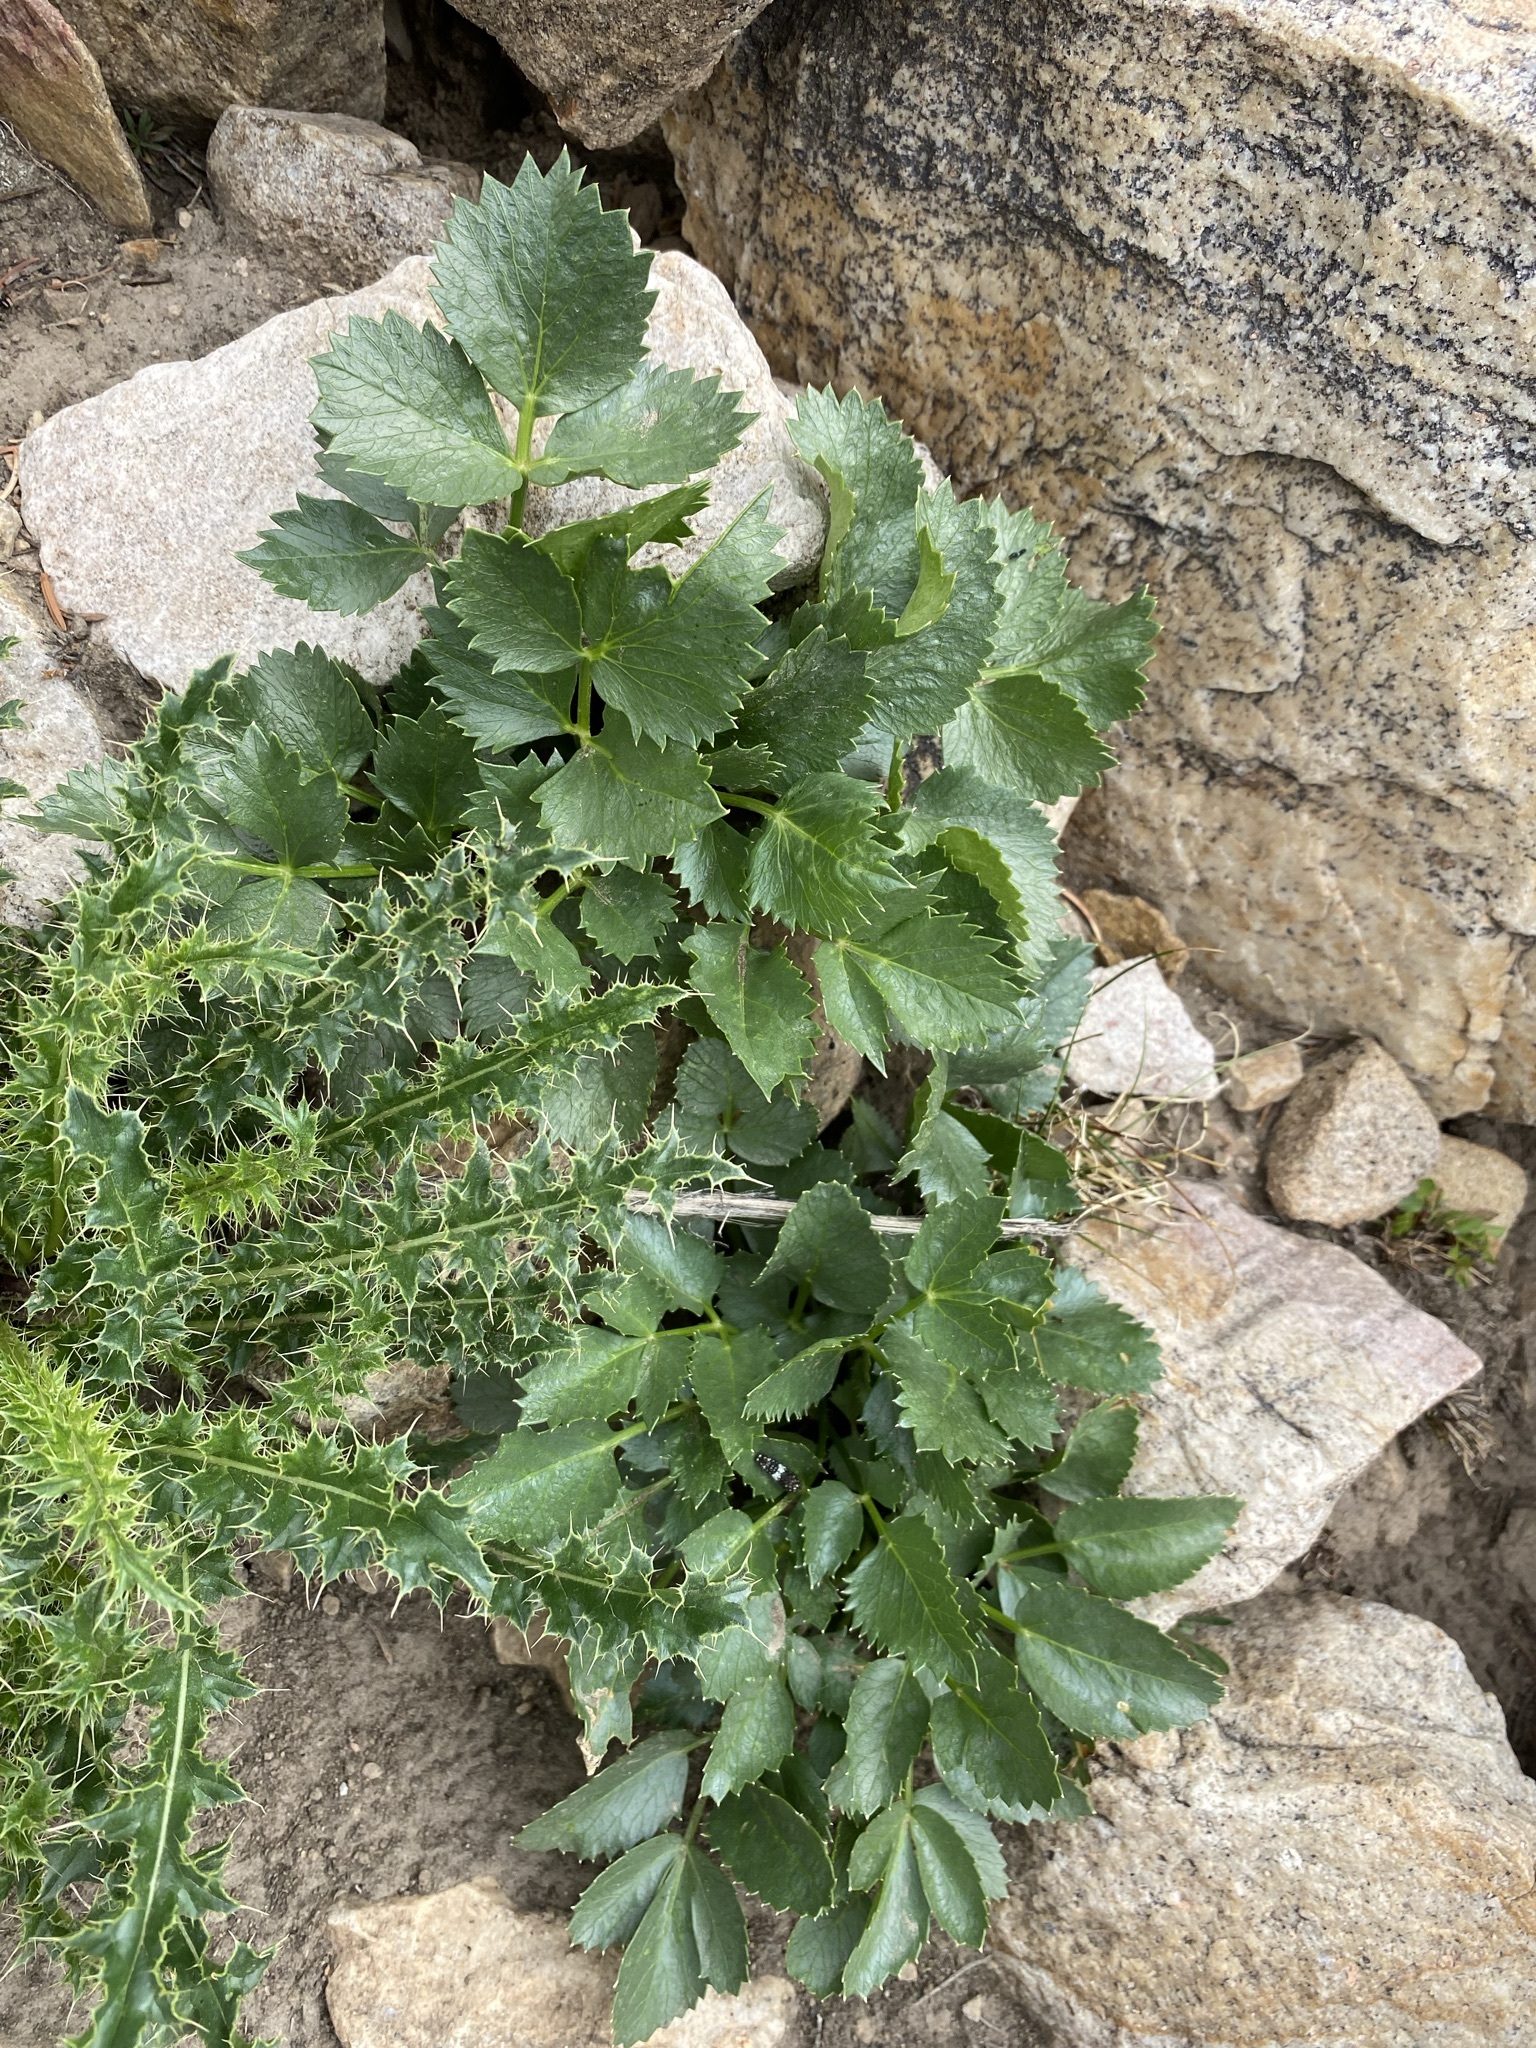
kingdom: Plantae
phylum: Tracheophyta
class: Magnoliopsida
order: Apiales
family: Apiaceae
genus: Angelica
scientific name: Angelica roseana
